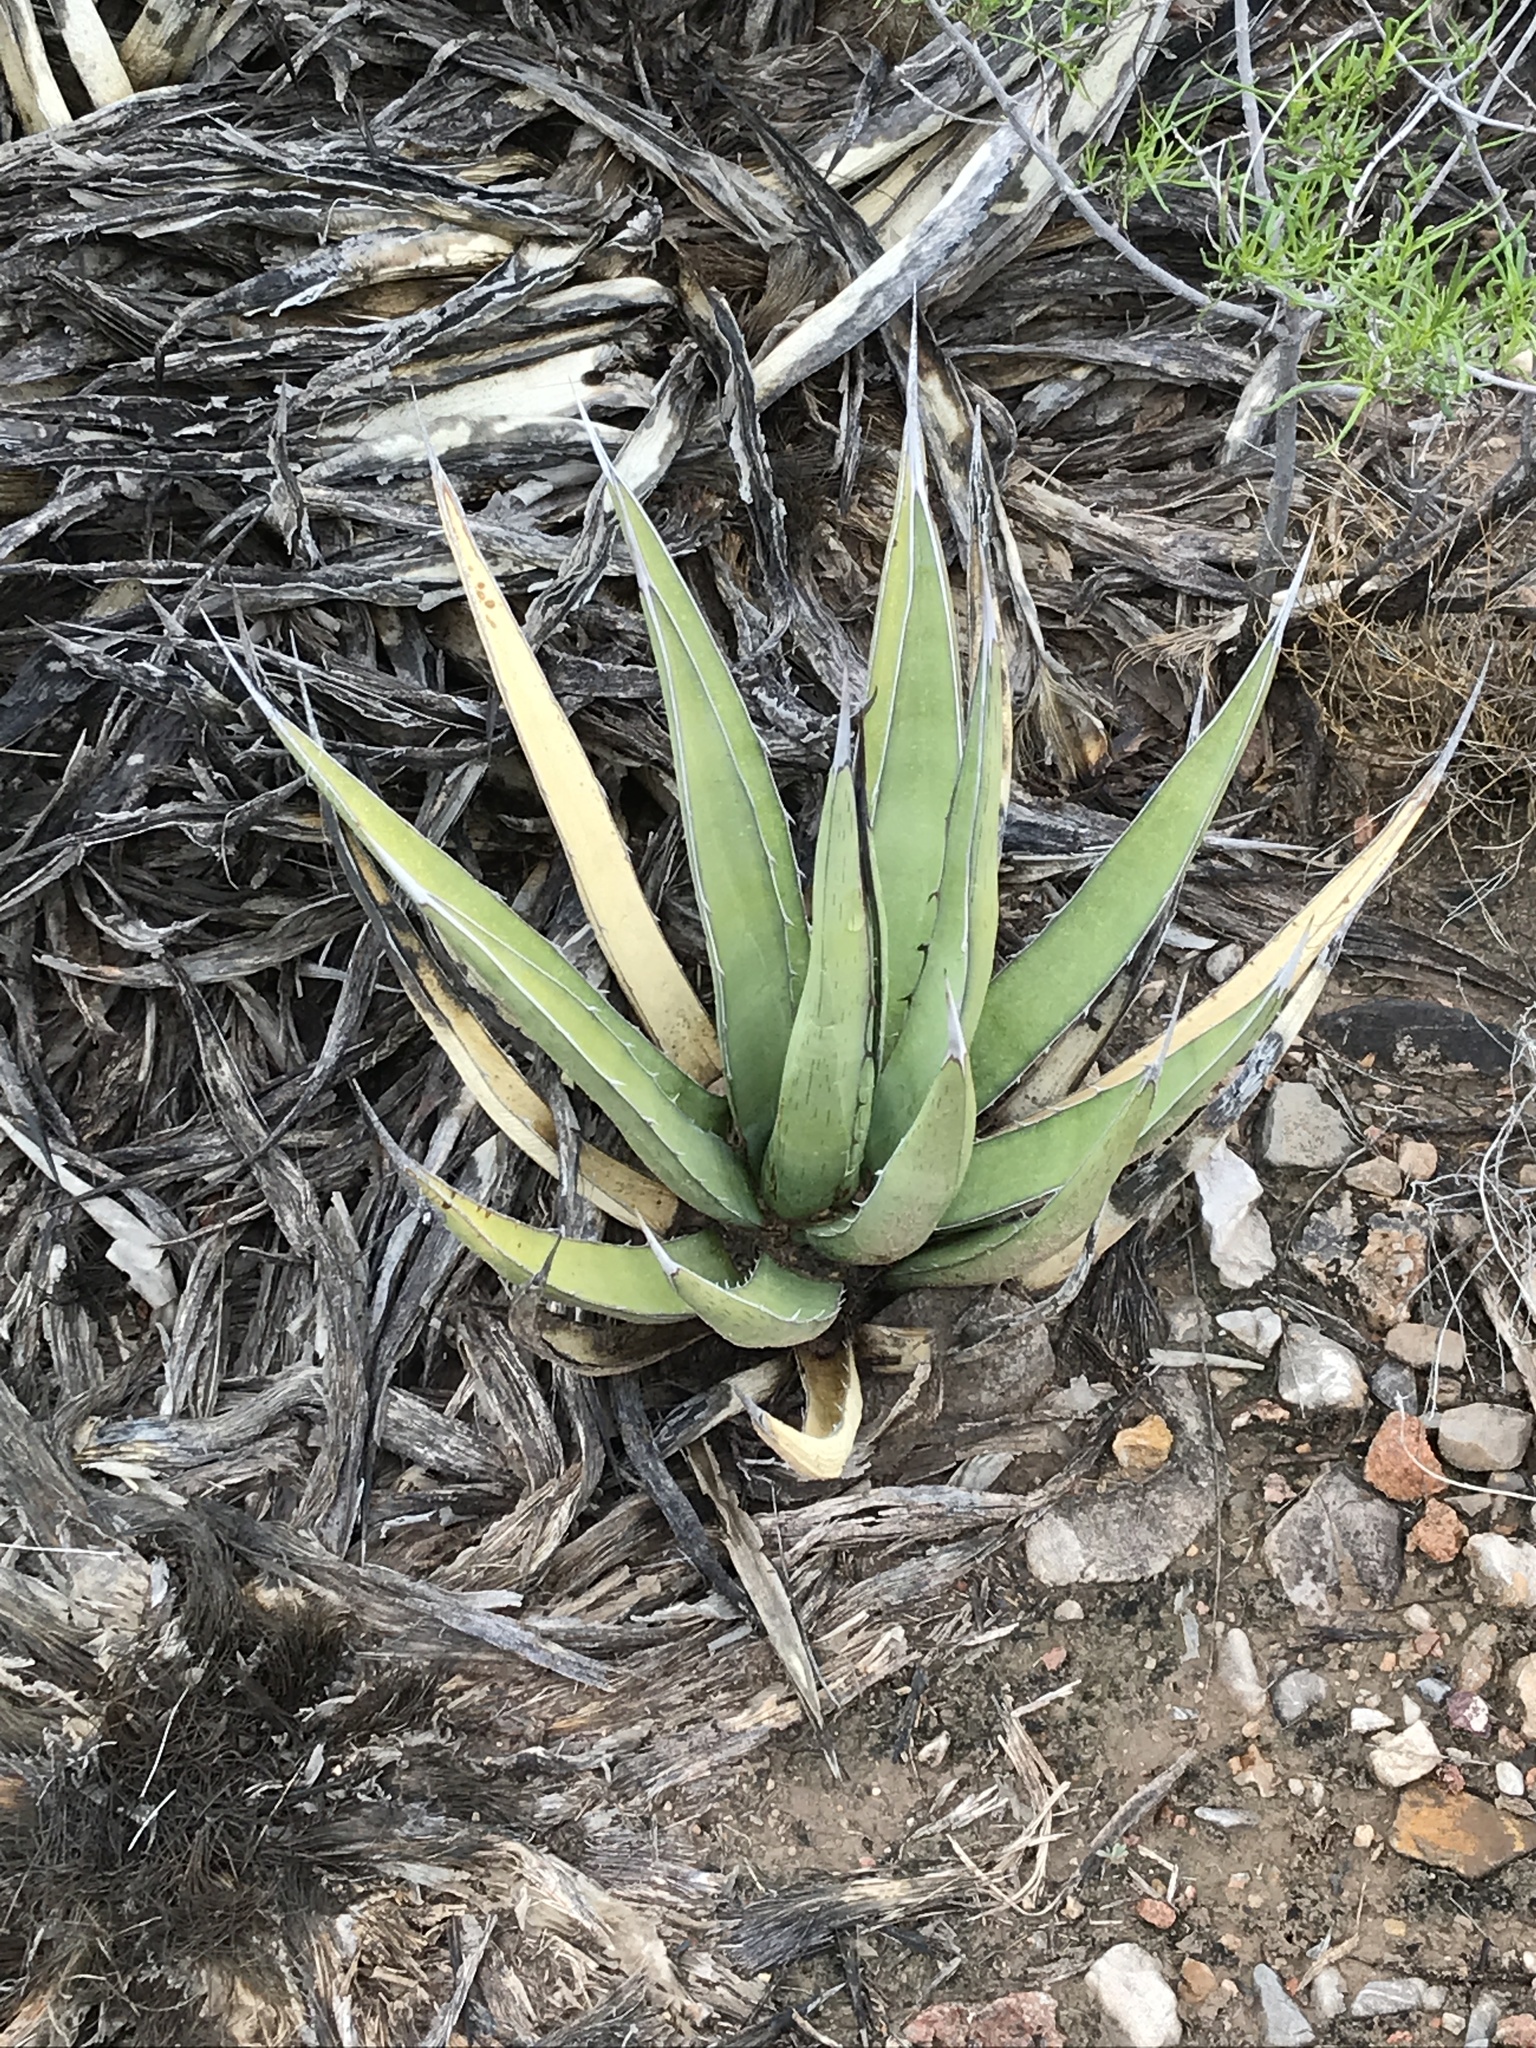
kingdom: Plantae
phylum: Tracheophyta
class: Liliopsida
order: Asparagales
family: Asparagaceae
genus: Agave
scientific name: Agave lechuguilla
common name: Lecheguilla agave
